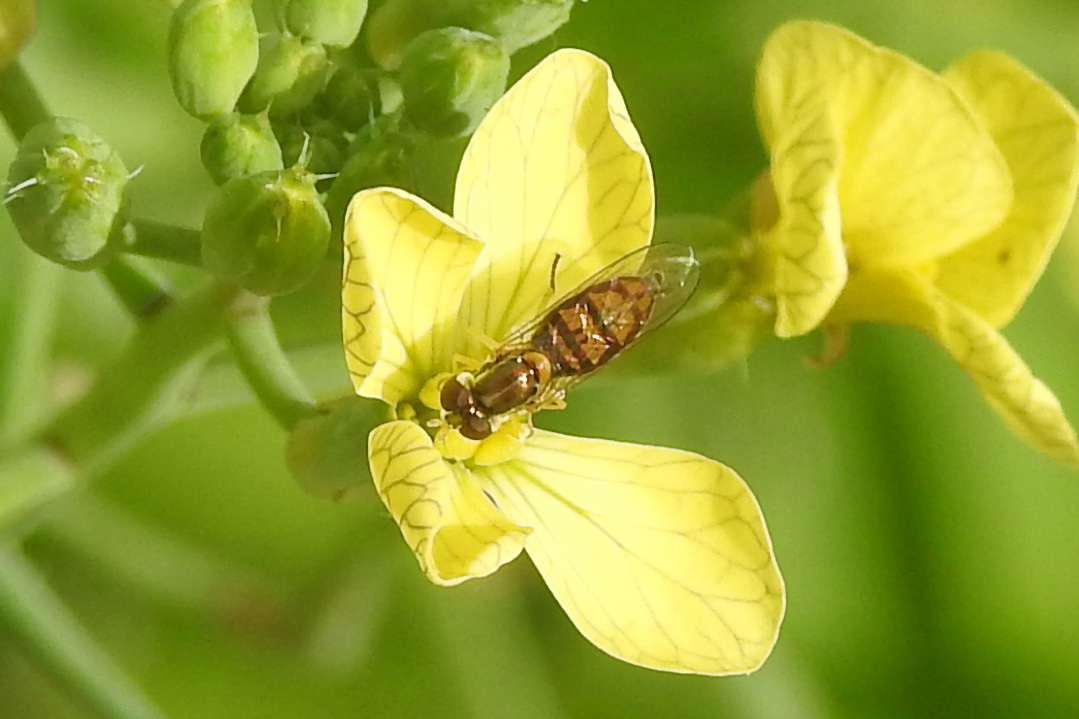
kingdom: Animalia
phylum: Arthropoda
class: Insecta
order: Diptera
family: Syrphidae
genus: Toxomerus
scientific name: Toxomerus marginatus
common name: Syrphid fly
